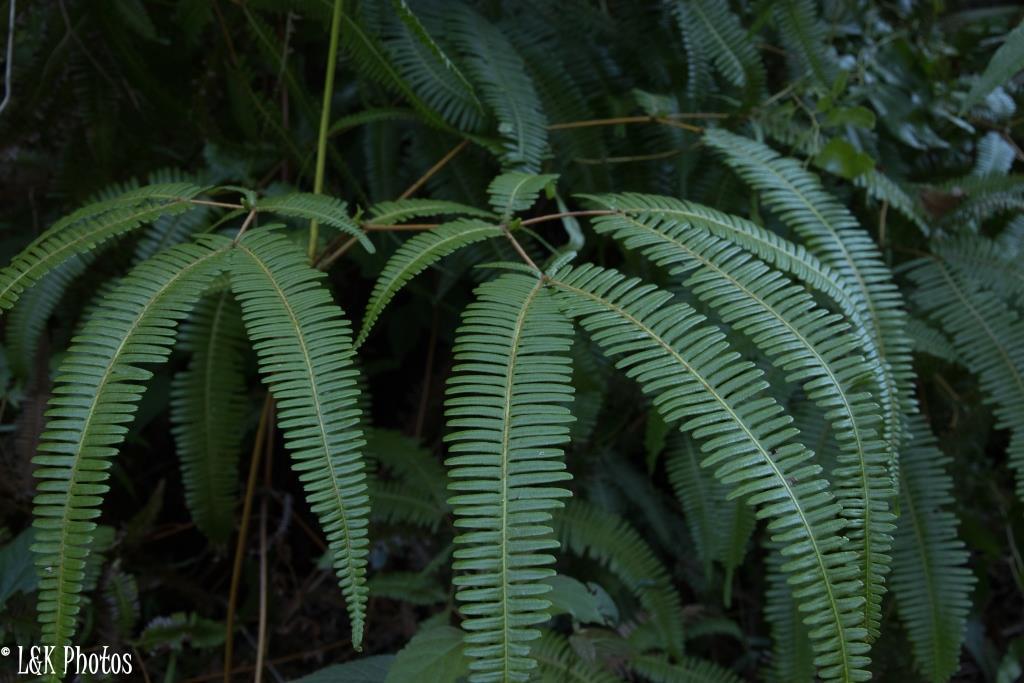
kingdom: Plantae
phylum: Tracheophyta
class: Polypodiopsida
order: Gleicheniales
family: Gleicheniaceae
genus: Dicranopteris
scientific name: Dicranopteris linearis
